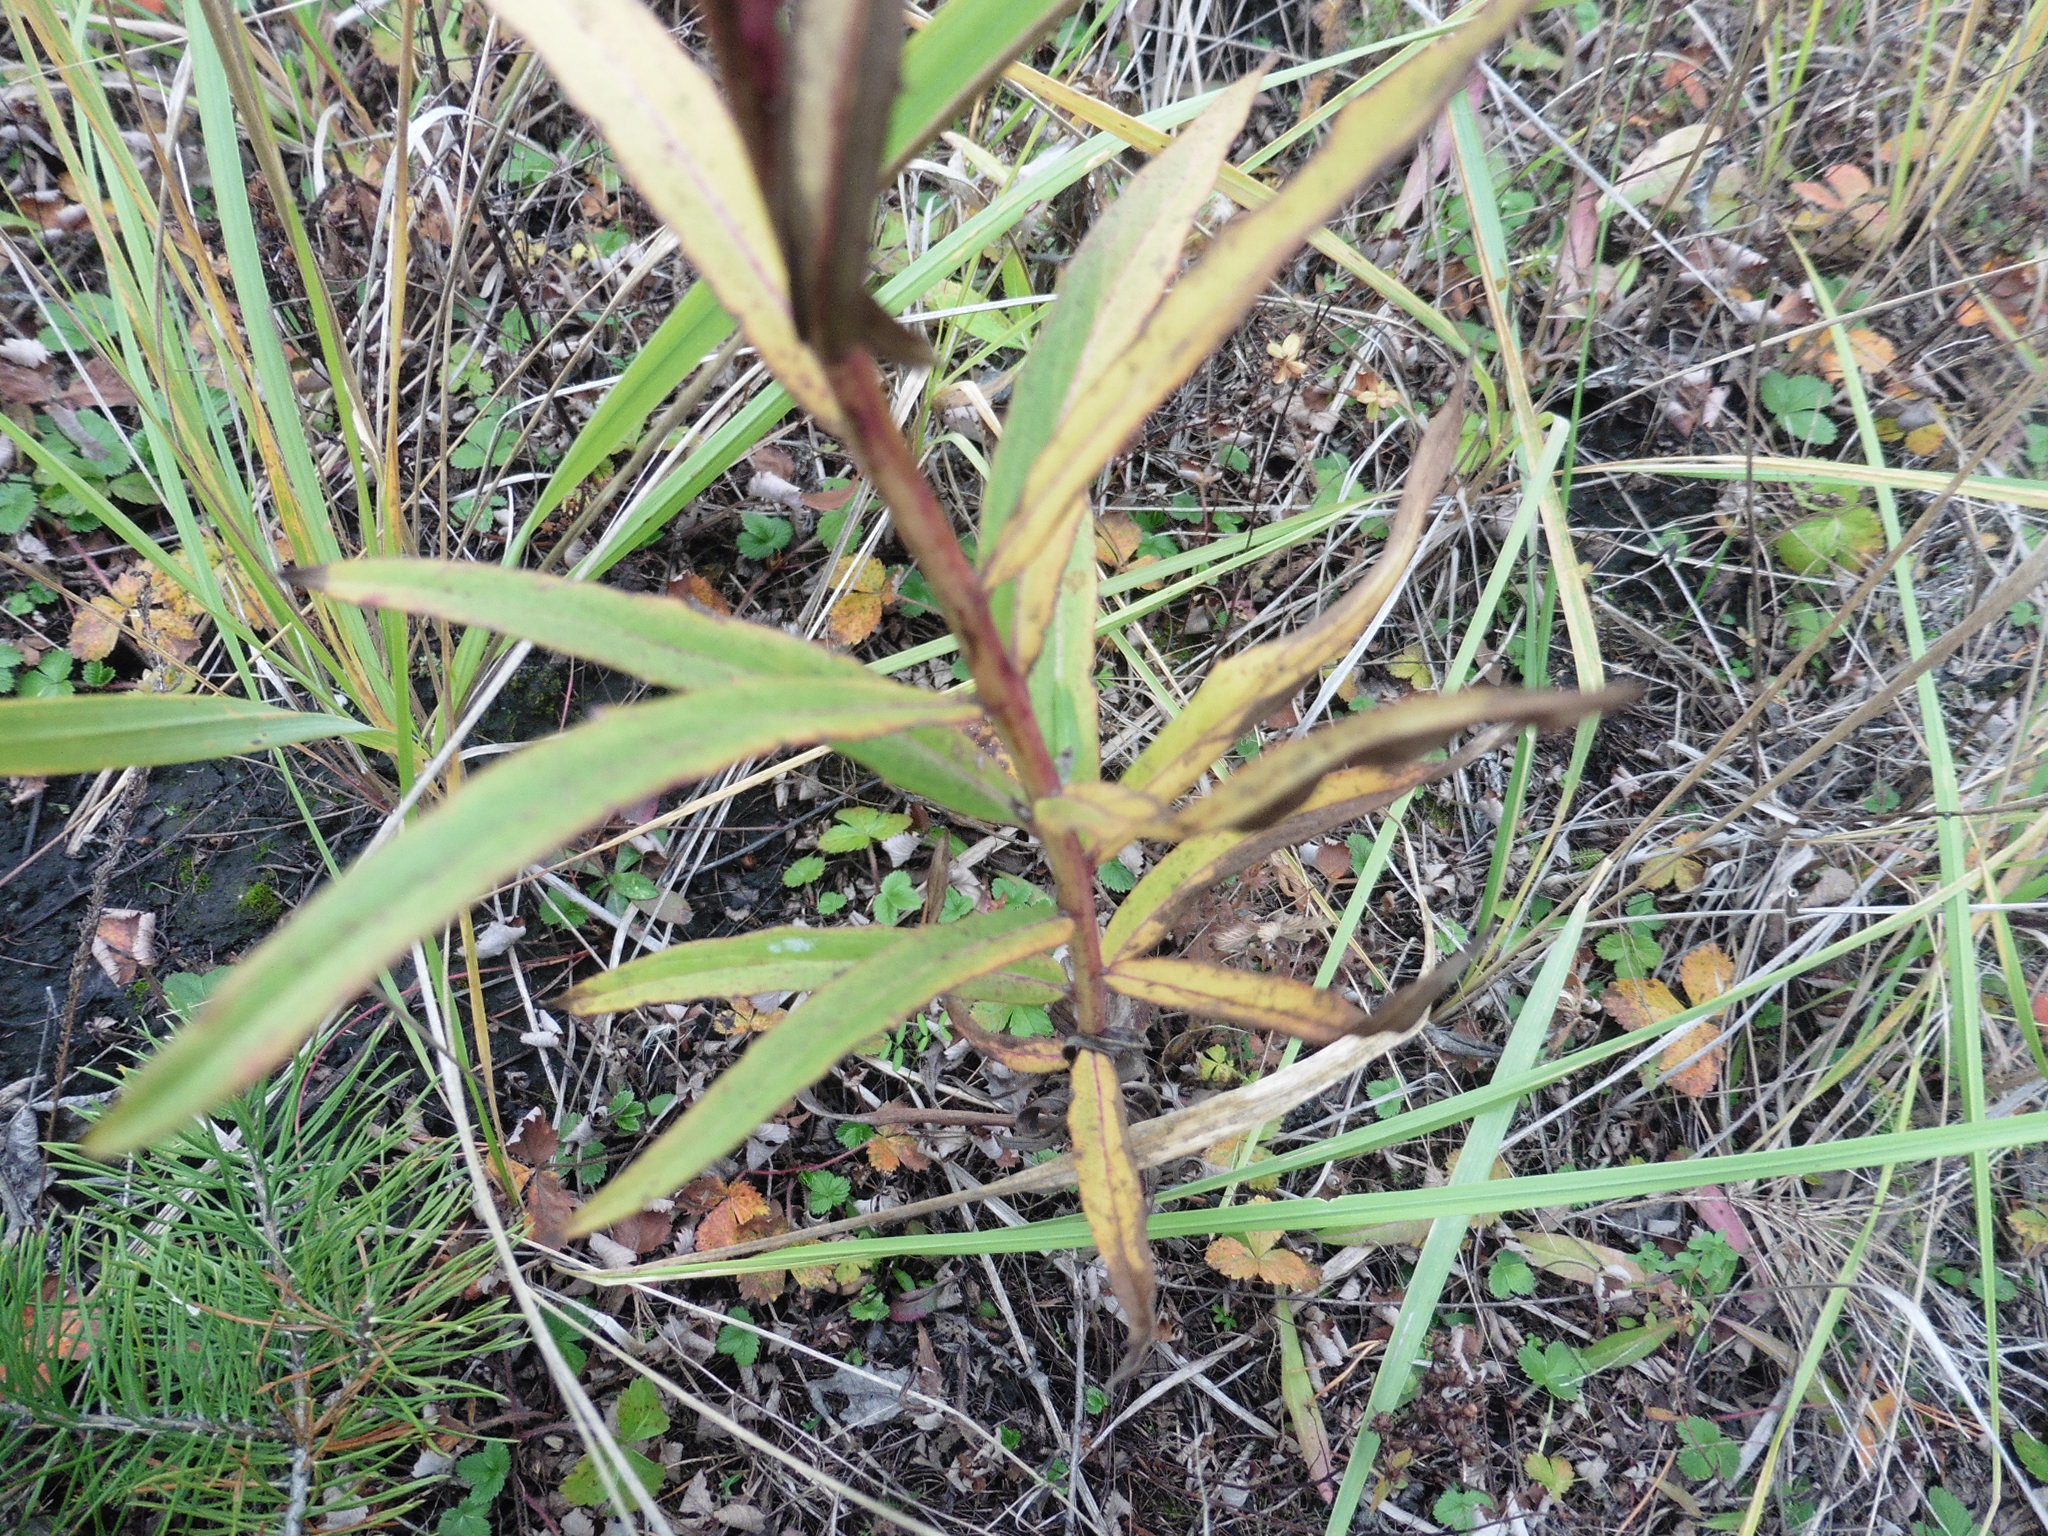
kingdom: Plantae
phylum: Tracheophyta
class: Magnoliopsida
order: Asterales
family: Asteraceae
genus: Hieracium
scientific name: Hieracium umbellatum
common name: Northern hawkweed
